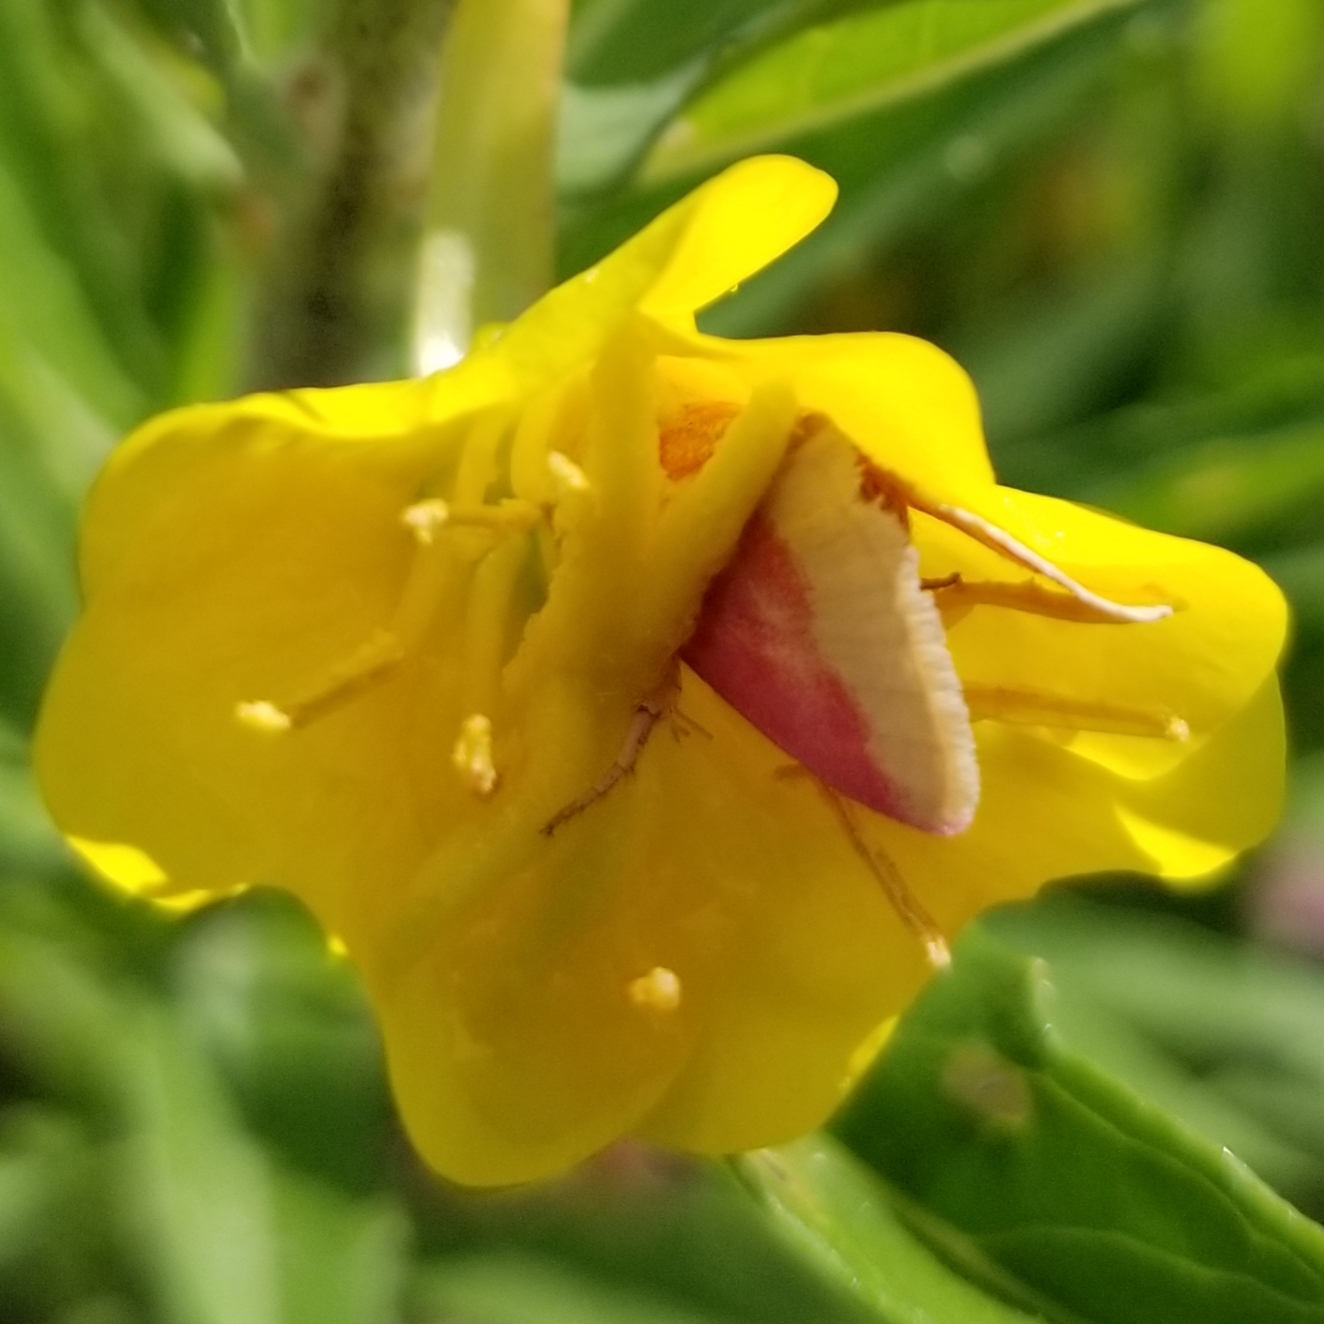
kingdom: Animalia
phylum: Arthropoda
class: Insecta
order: Lepidoptera
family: Noctuidae
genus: Schinia
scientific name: Schinia florida
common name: Primrose moth
